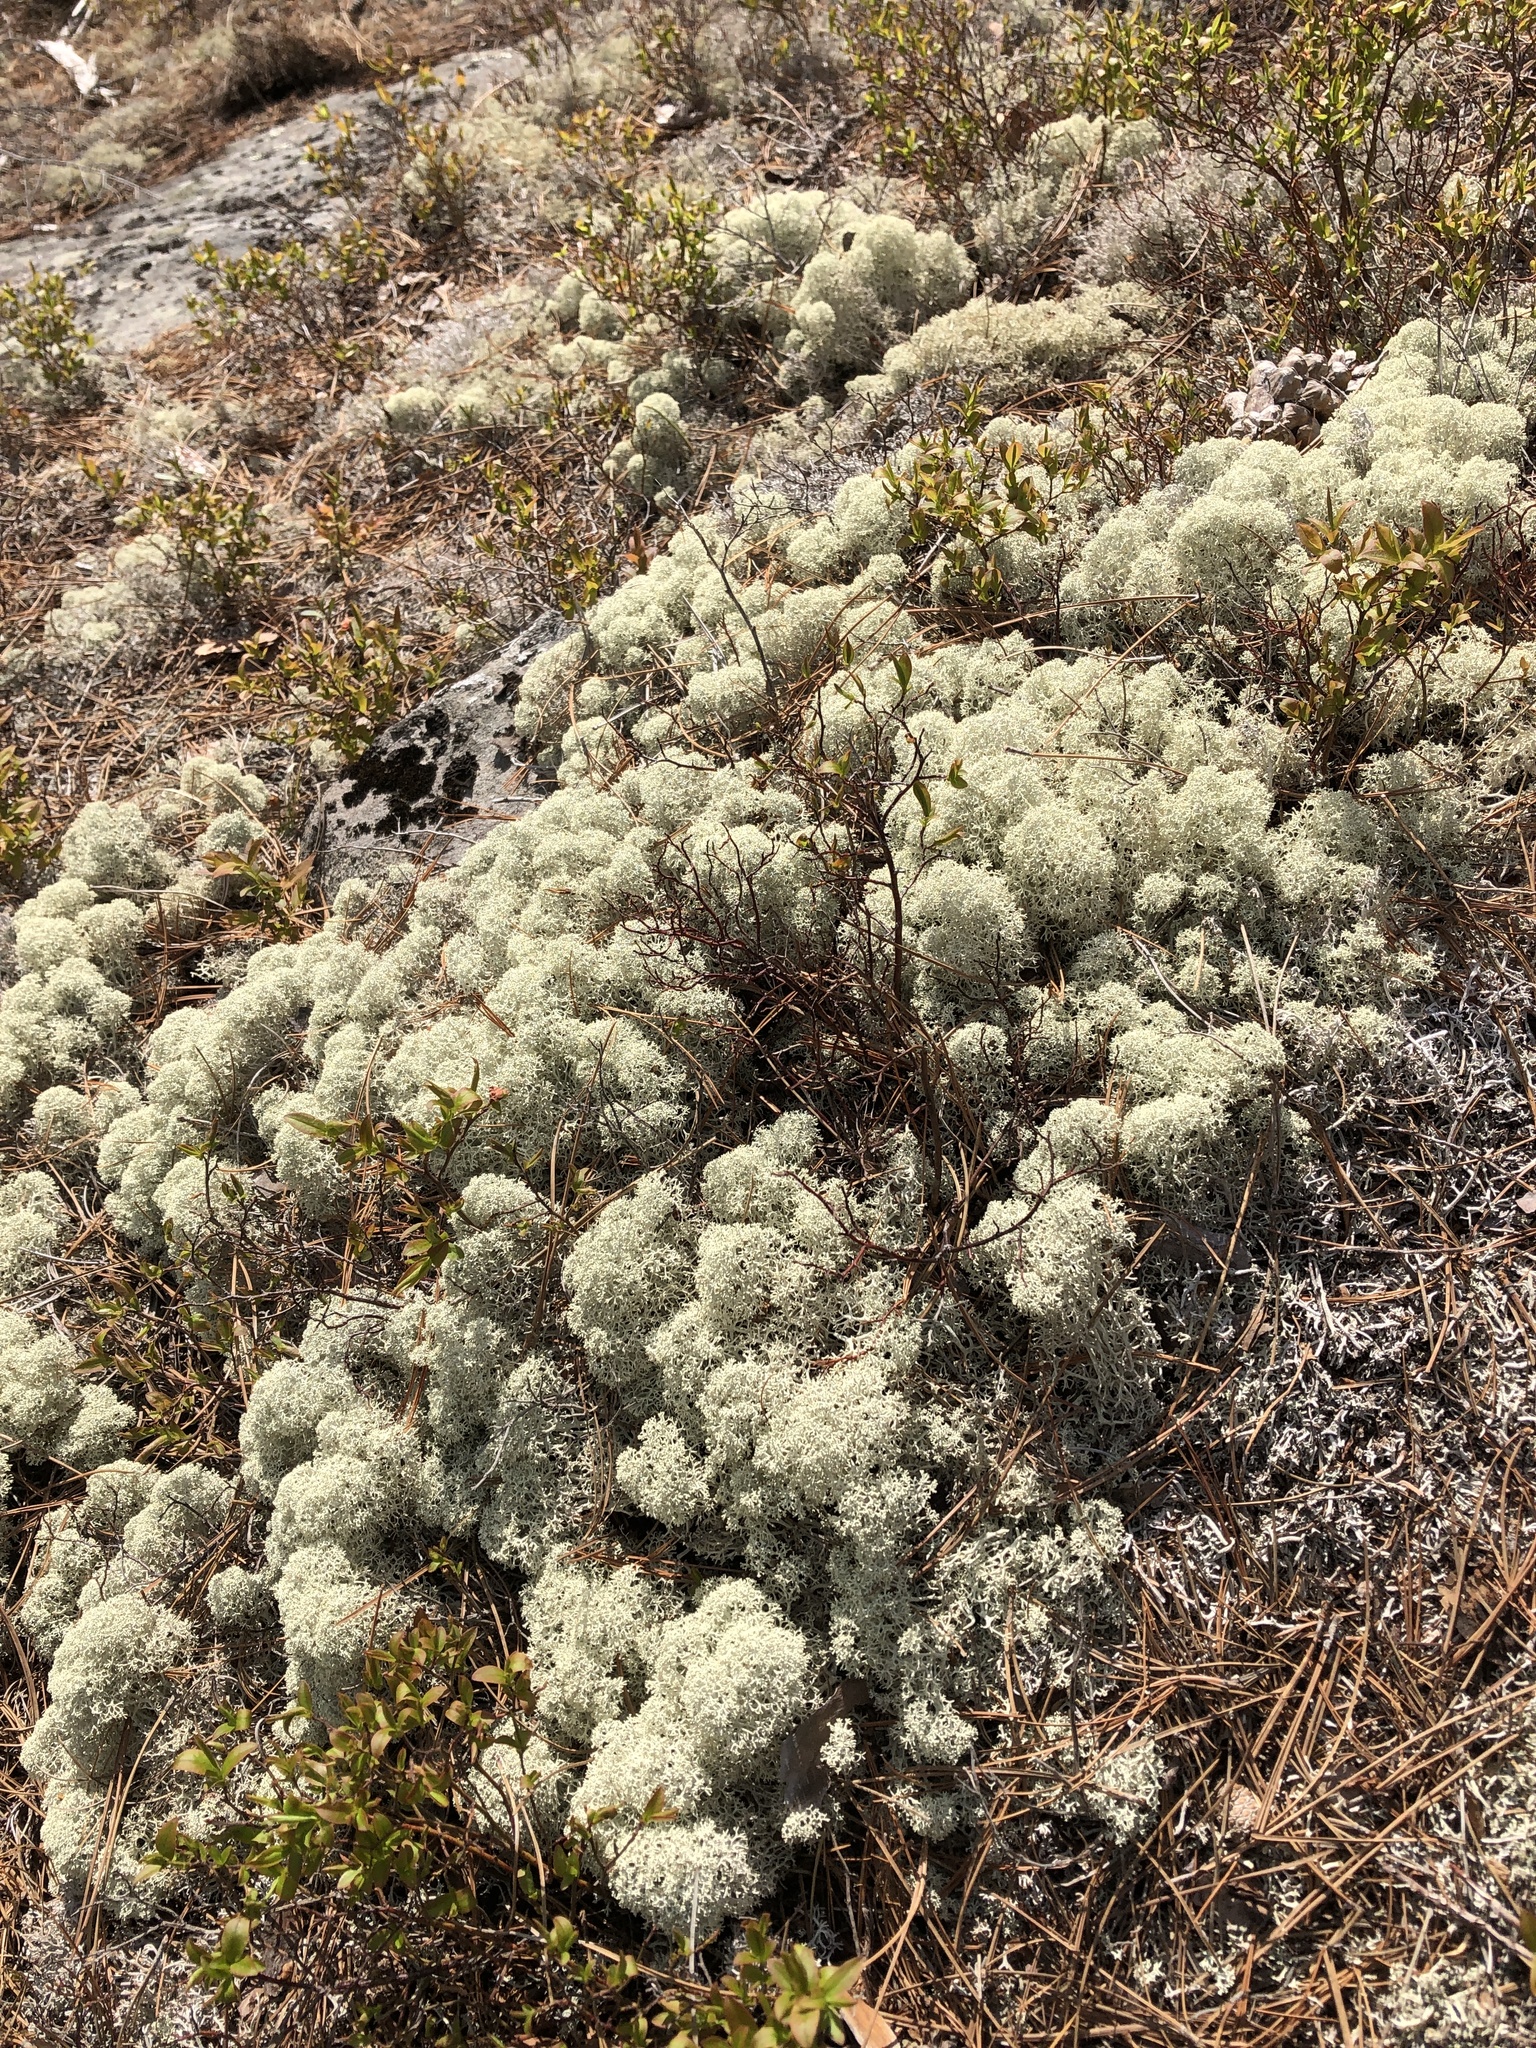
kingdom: Fungi
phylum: Ascomycota
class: Lecanoromycetes
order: Lecanorales
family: Cladoniaceae
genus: Cladonia
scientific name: Cladonia stellaris
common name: Star-tipped reindeer lichen
